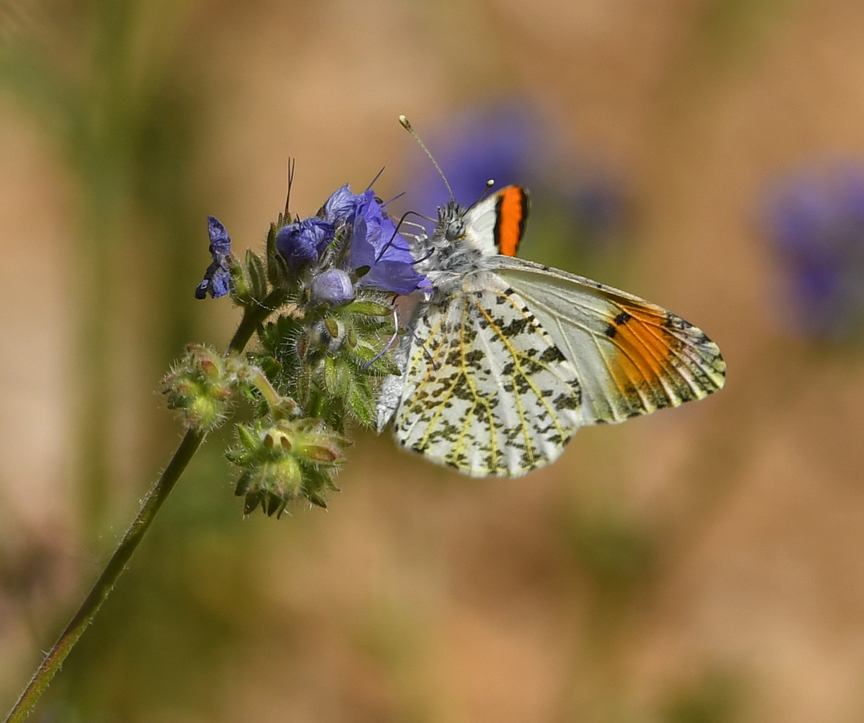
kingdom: Animalia
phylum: Arthropoda
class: Insecta
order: Lepidoptera
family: Pieridae
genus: Anthocharis
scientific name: Anthocharis sara
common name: Sara's orangetip
